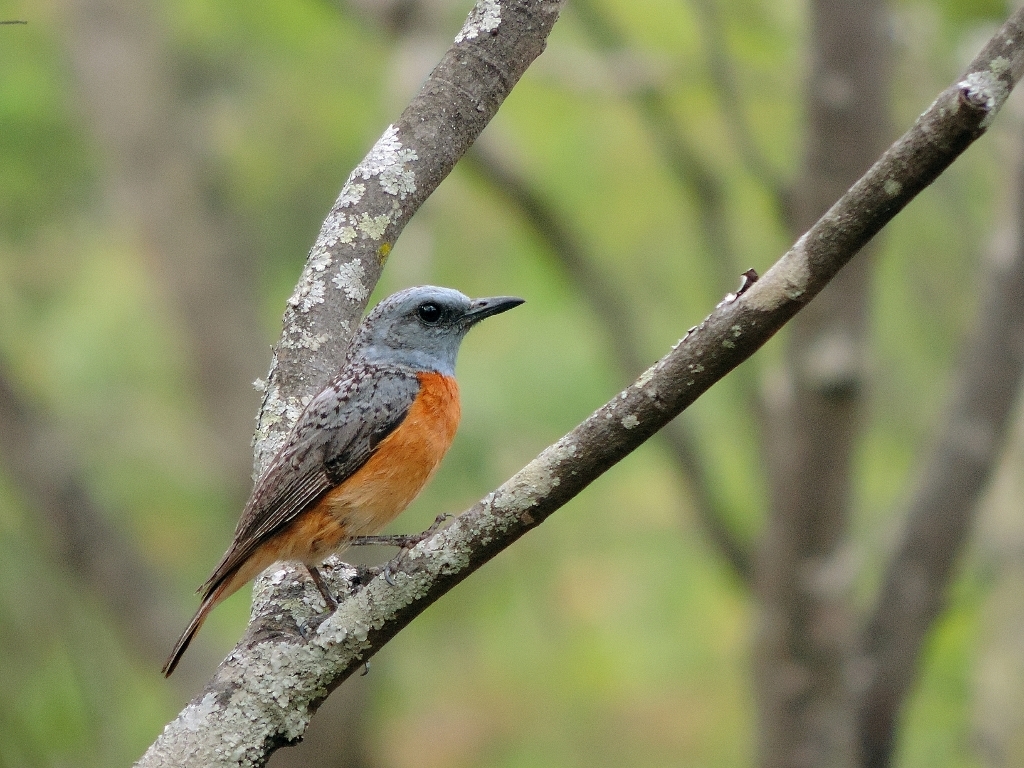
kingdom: Animalia
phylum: Chordata
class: Aves
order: Passeriformes
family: Muscicapidae
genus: Monticola
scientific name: Monticola angolensis
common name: Miombo rock thrush
